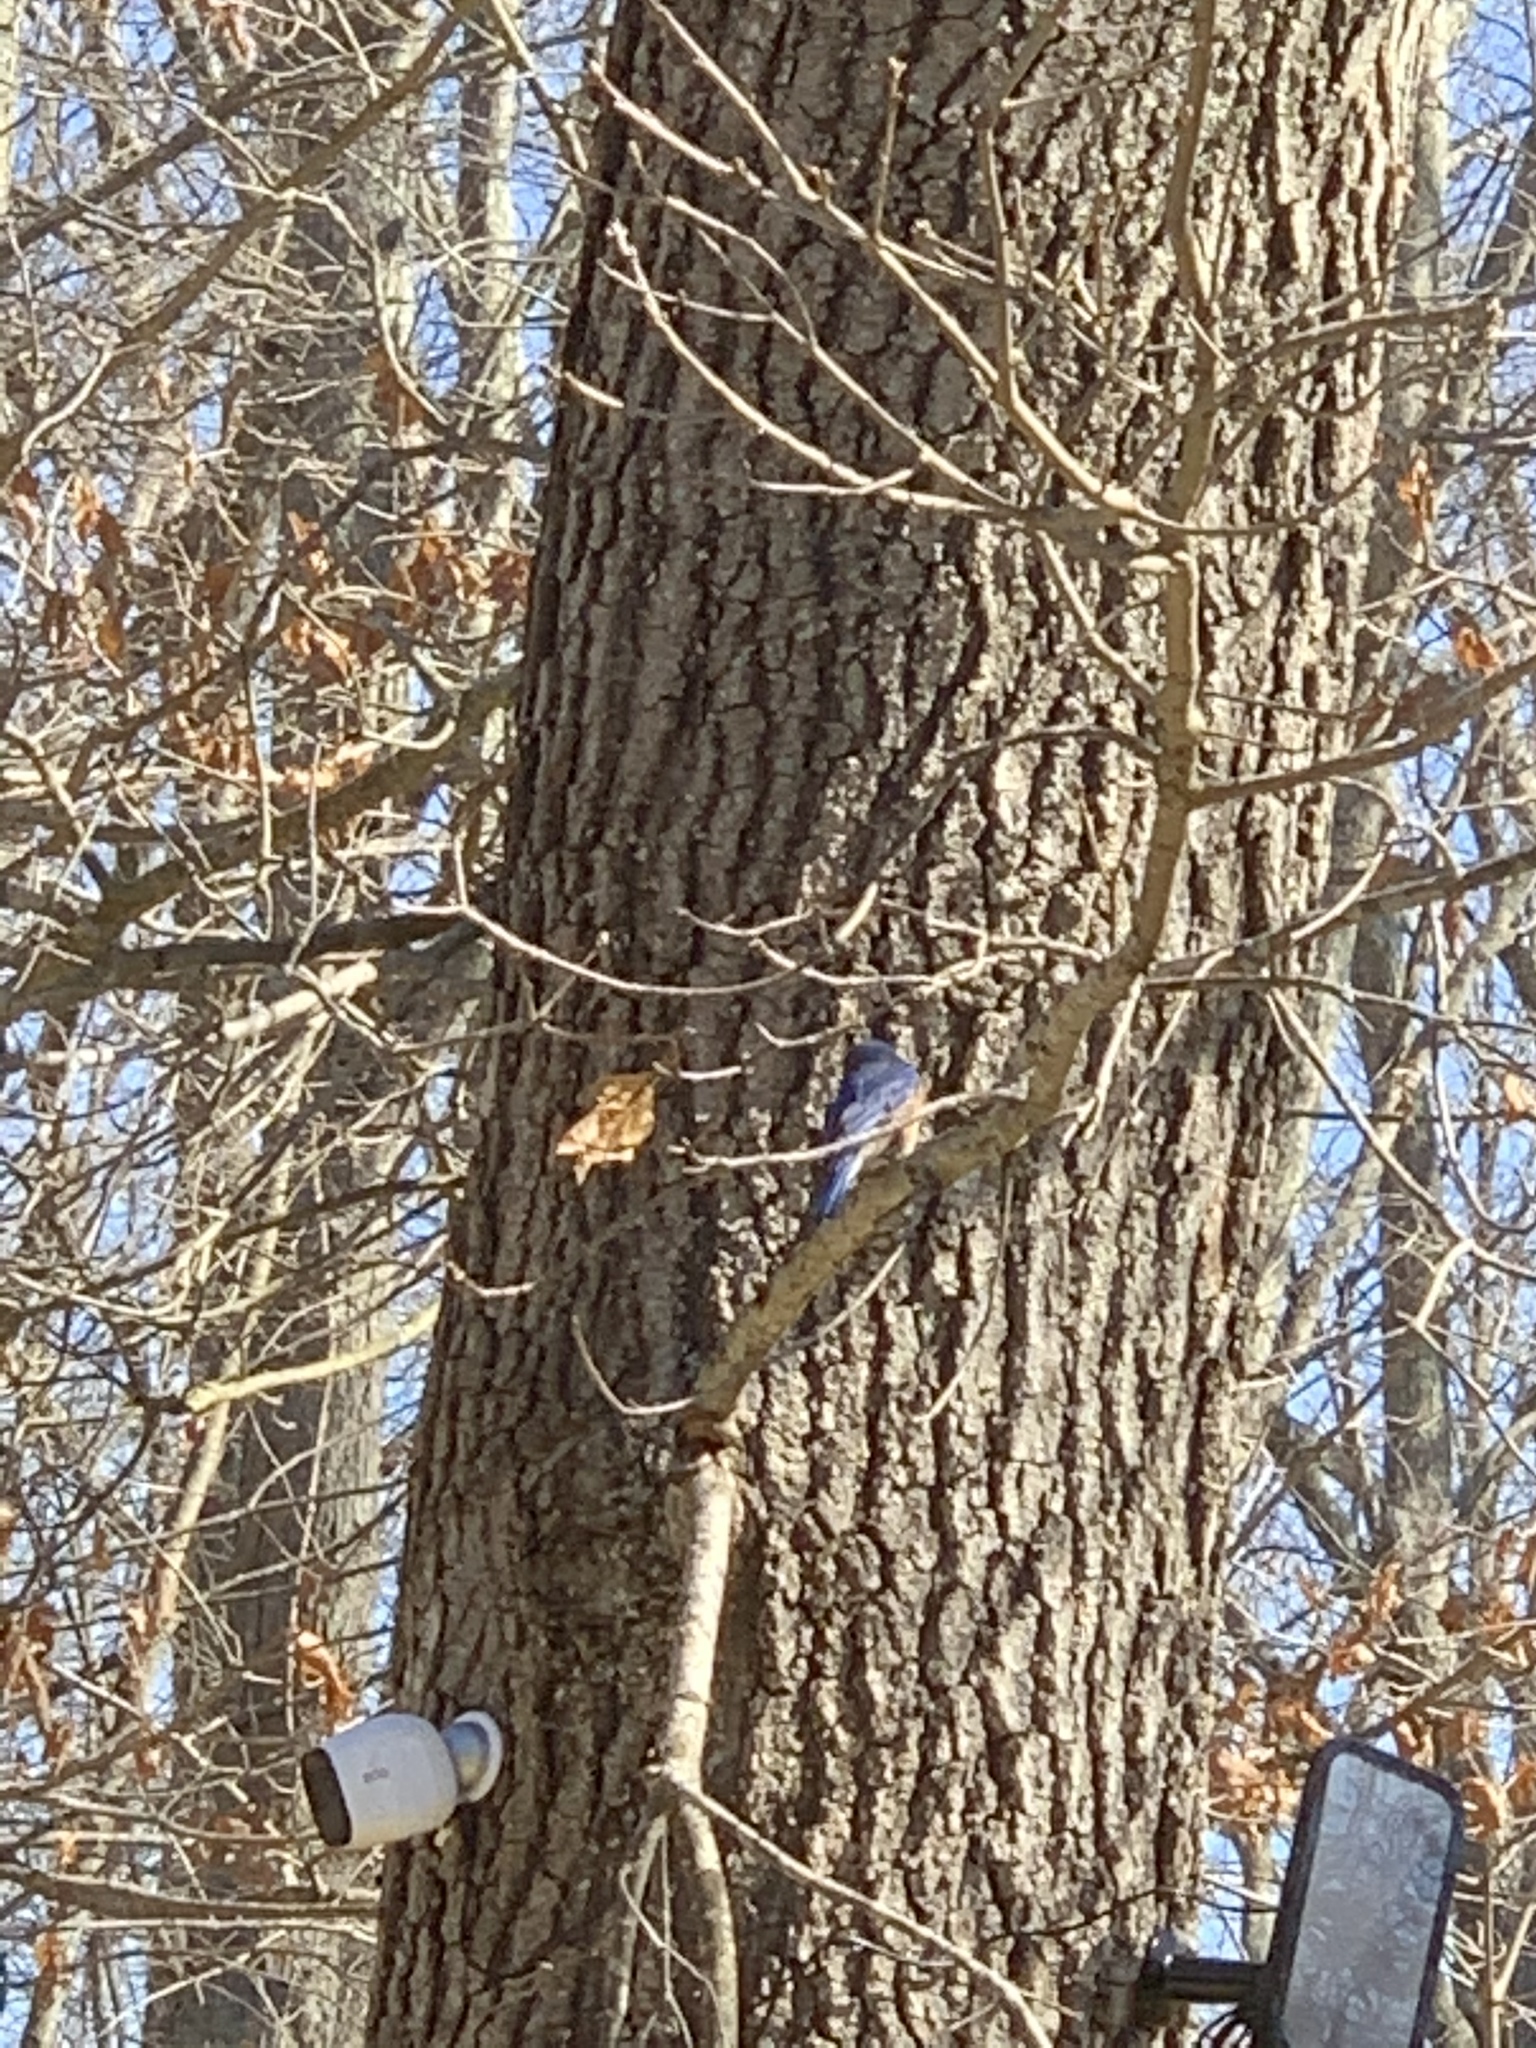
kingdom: Animalia
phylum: Chordata
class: Aves
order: Passeriformes
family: Turdidae
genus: Sialia
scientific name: Sialia sialis
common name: Eastern bluebird
